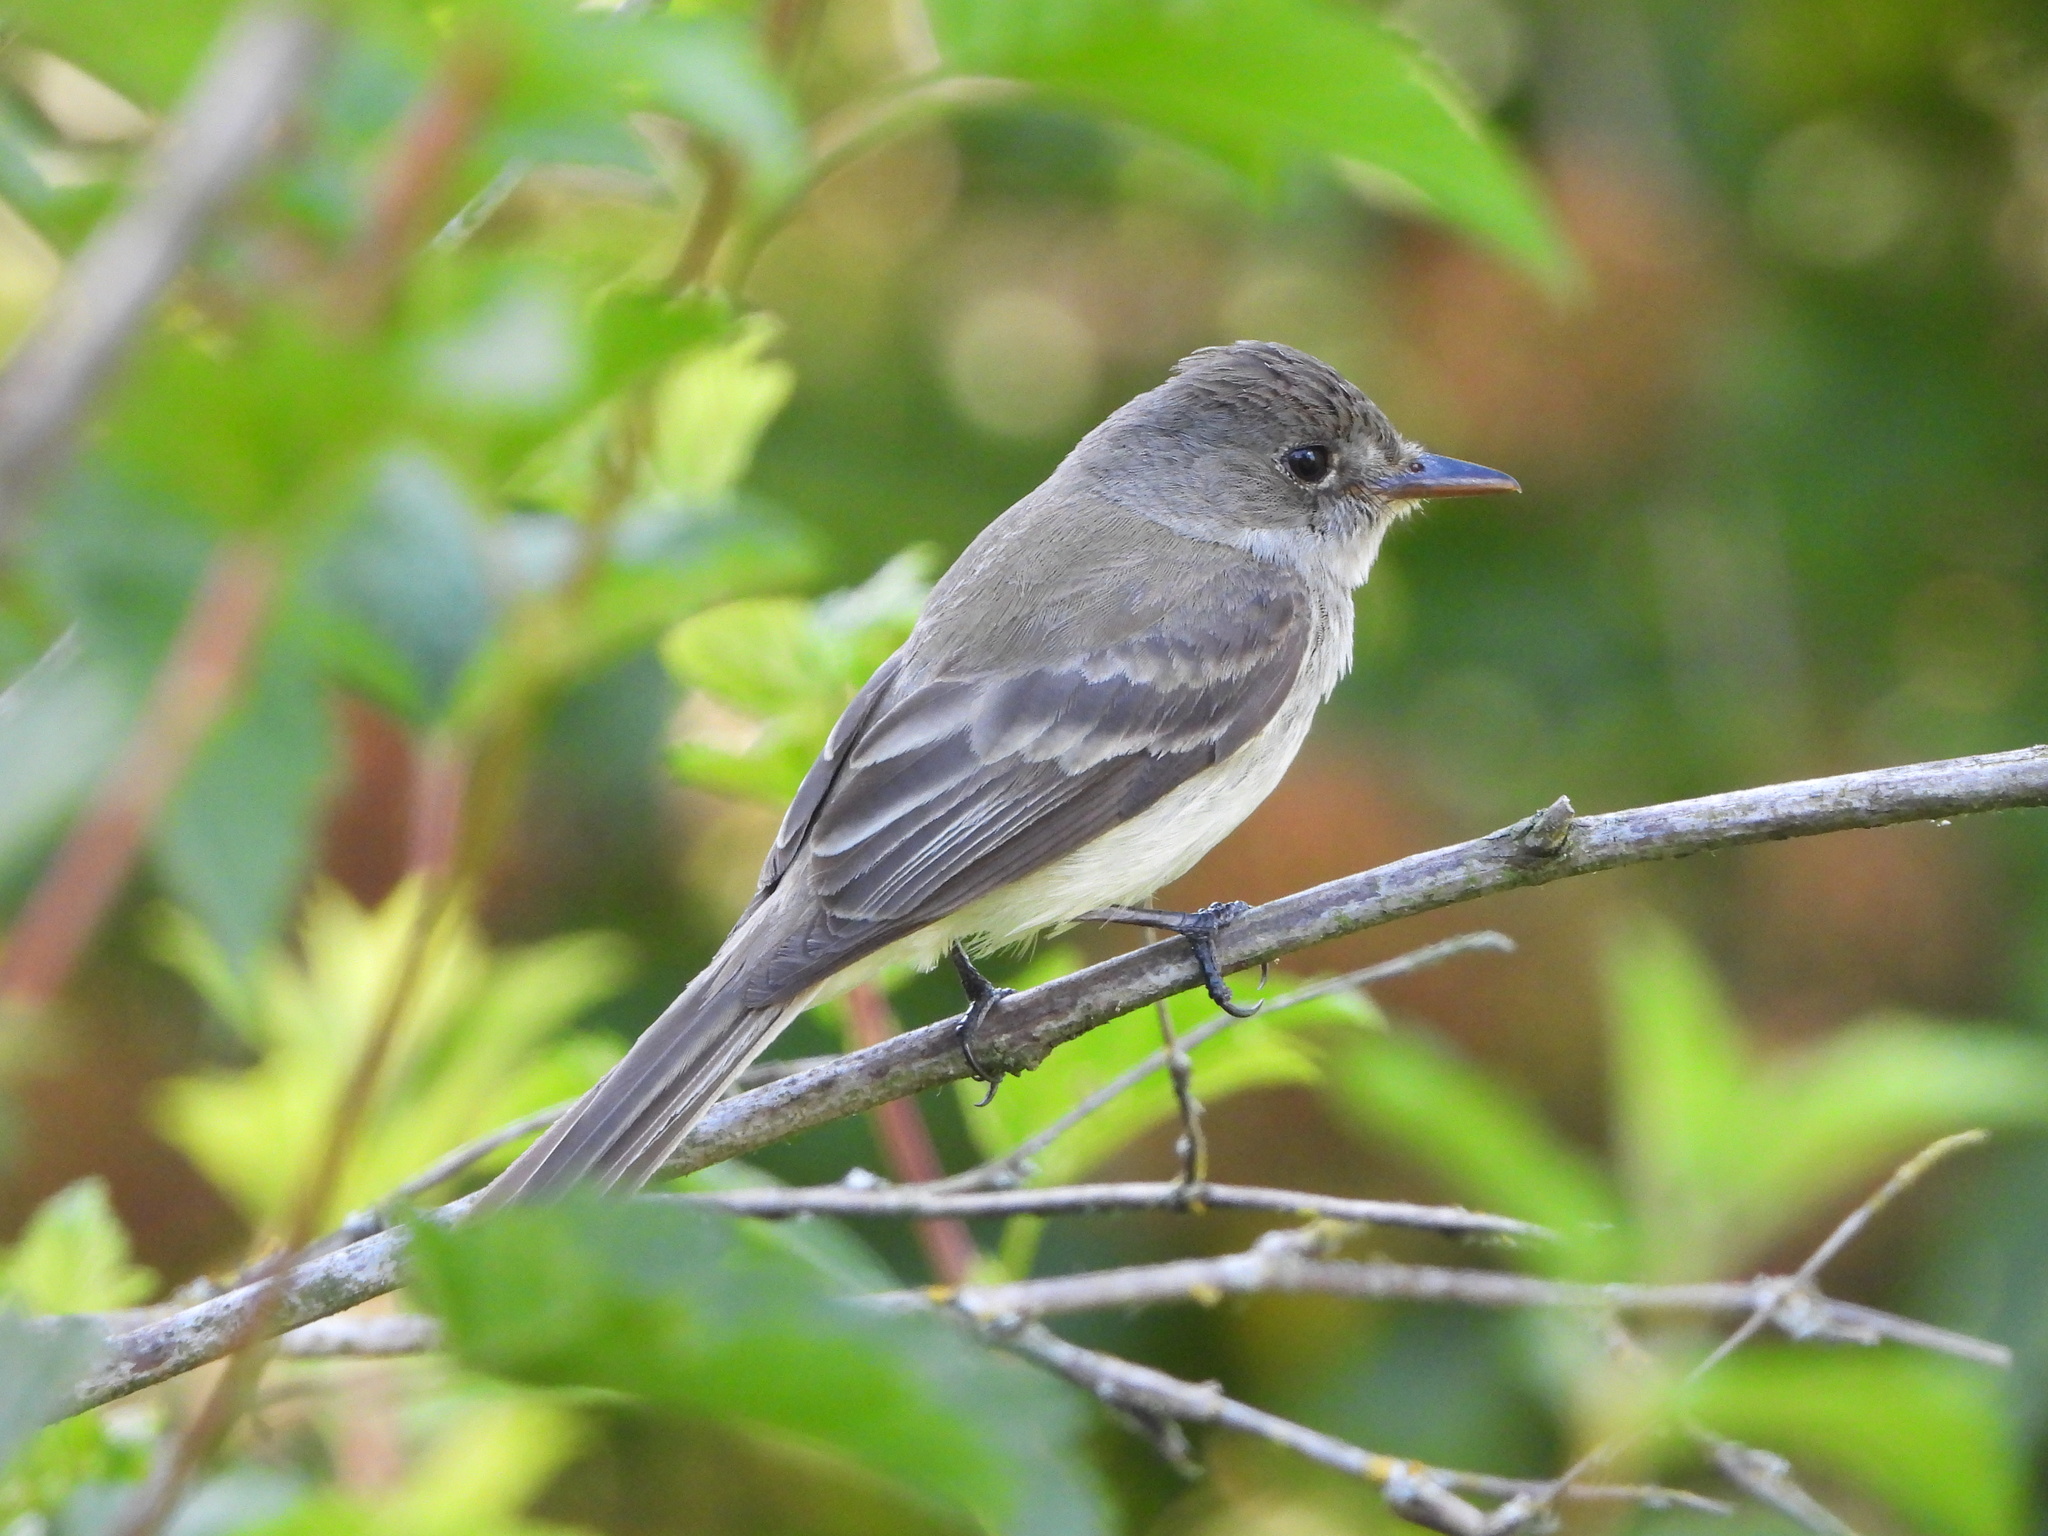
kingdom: Animalia
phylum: Chordata
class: Aves
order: Passeriformes
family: Tyrannidae
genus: Empidonax
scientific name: Empidonax traillii
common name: Willow flycatcher
